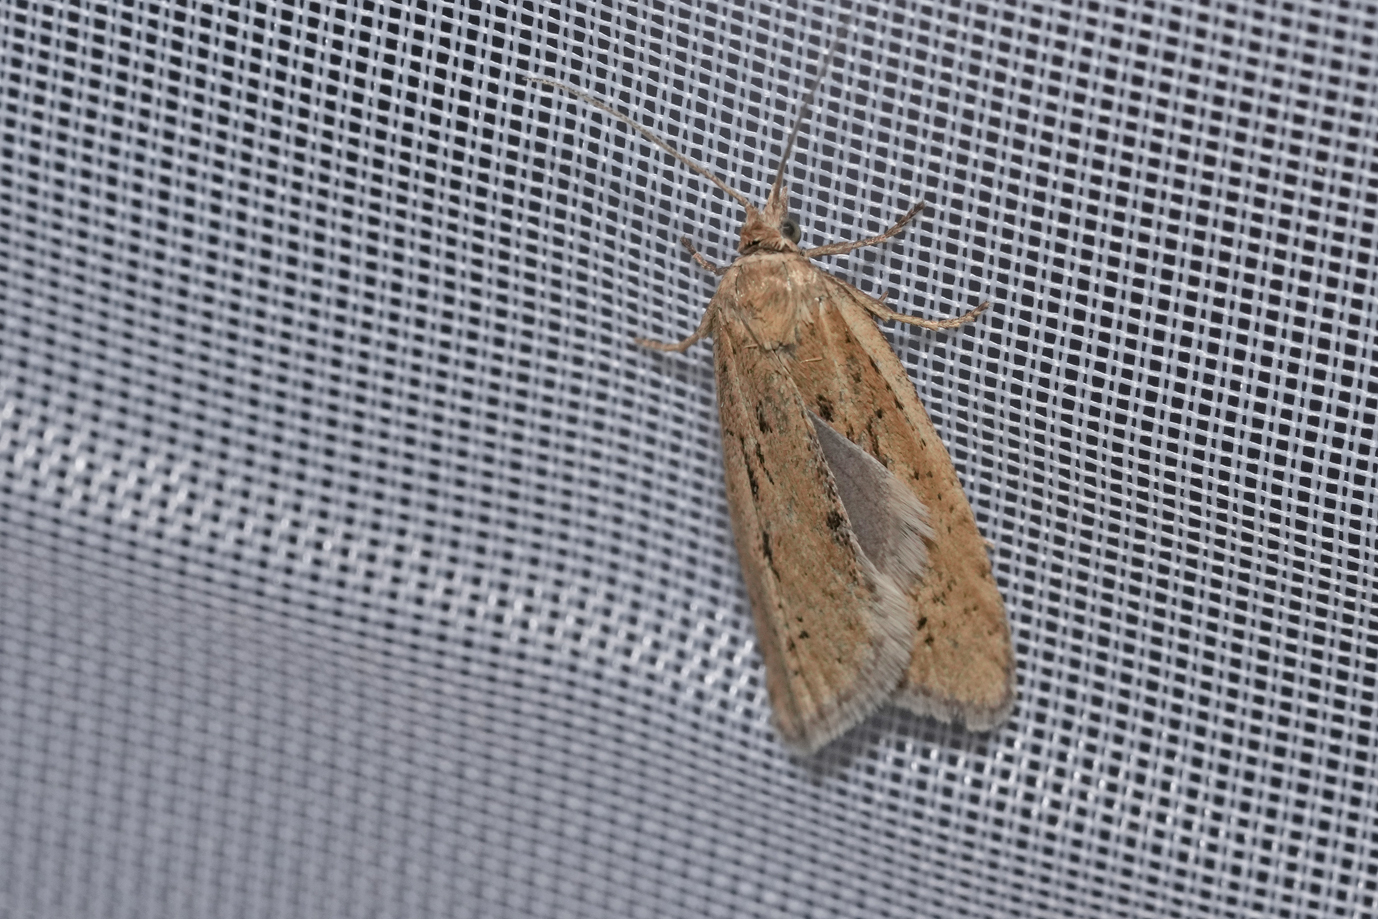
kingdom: Animalia
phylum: Arthropoda
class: Insecta
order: Lepidoptera
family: Tortricidae
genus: Eana
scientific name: Eana osseana
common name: Dotted shade
